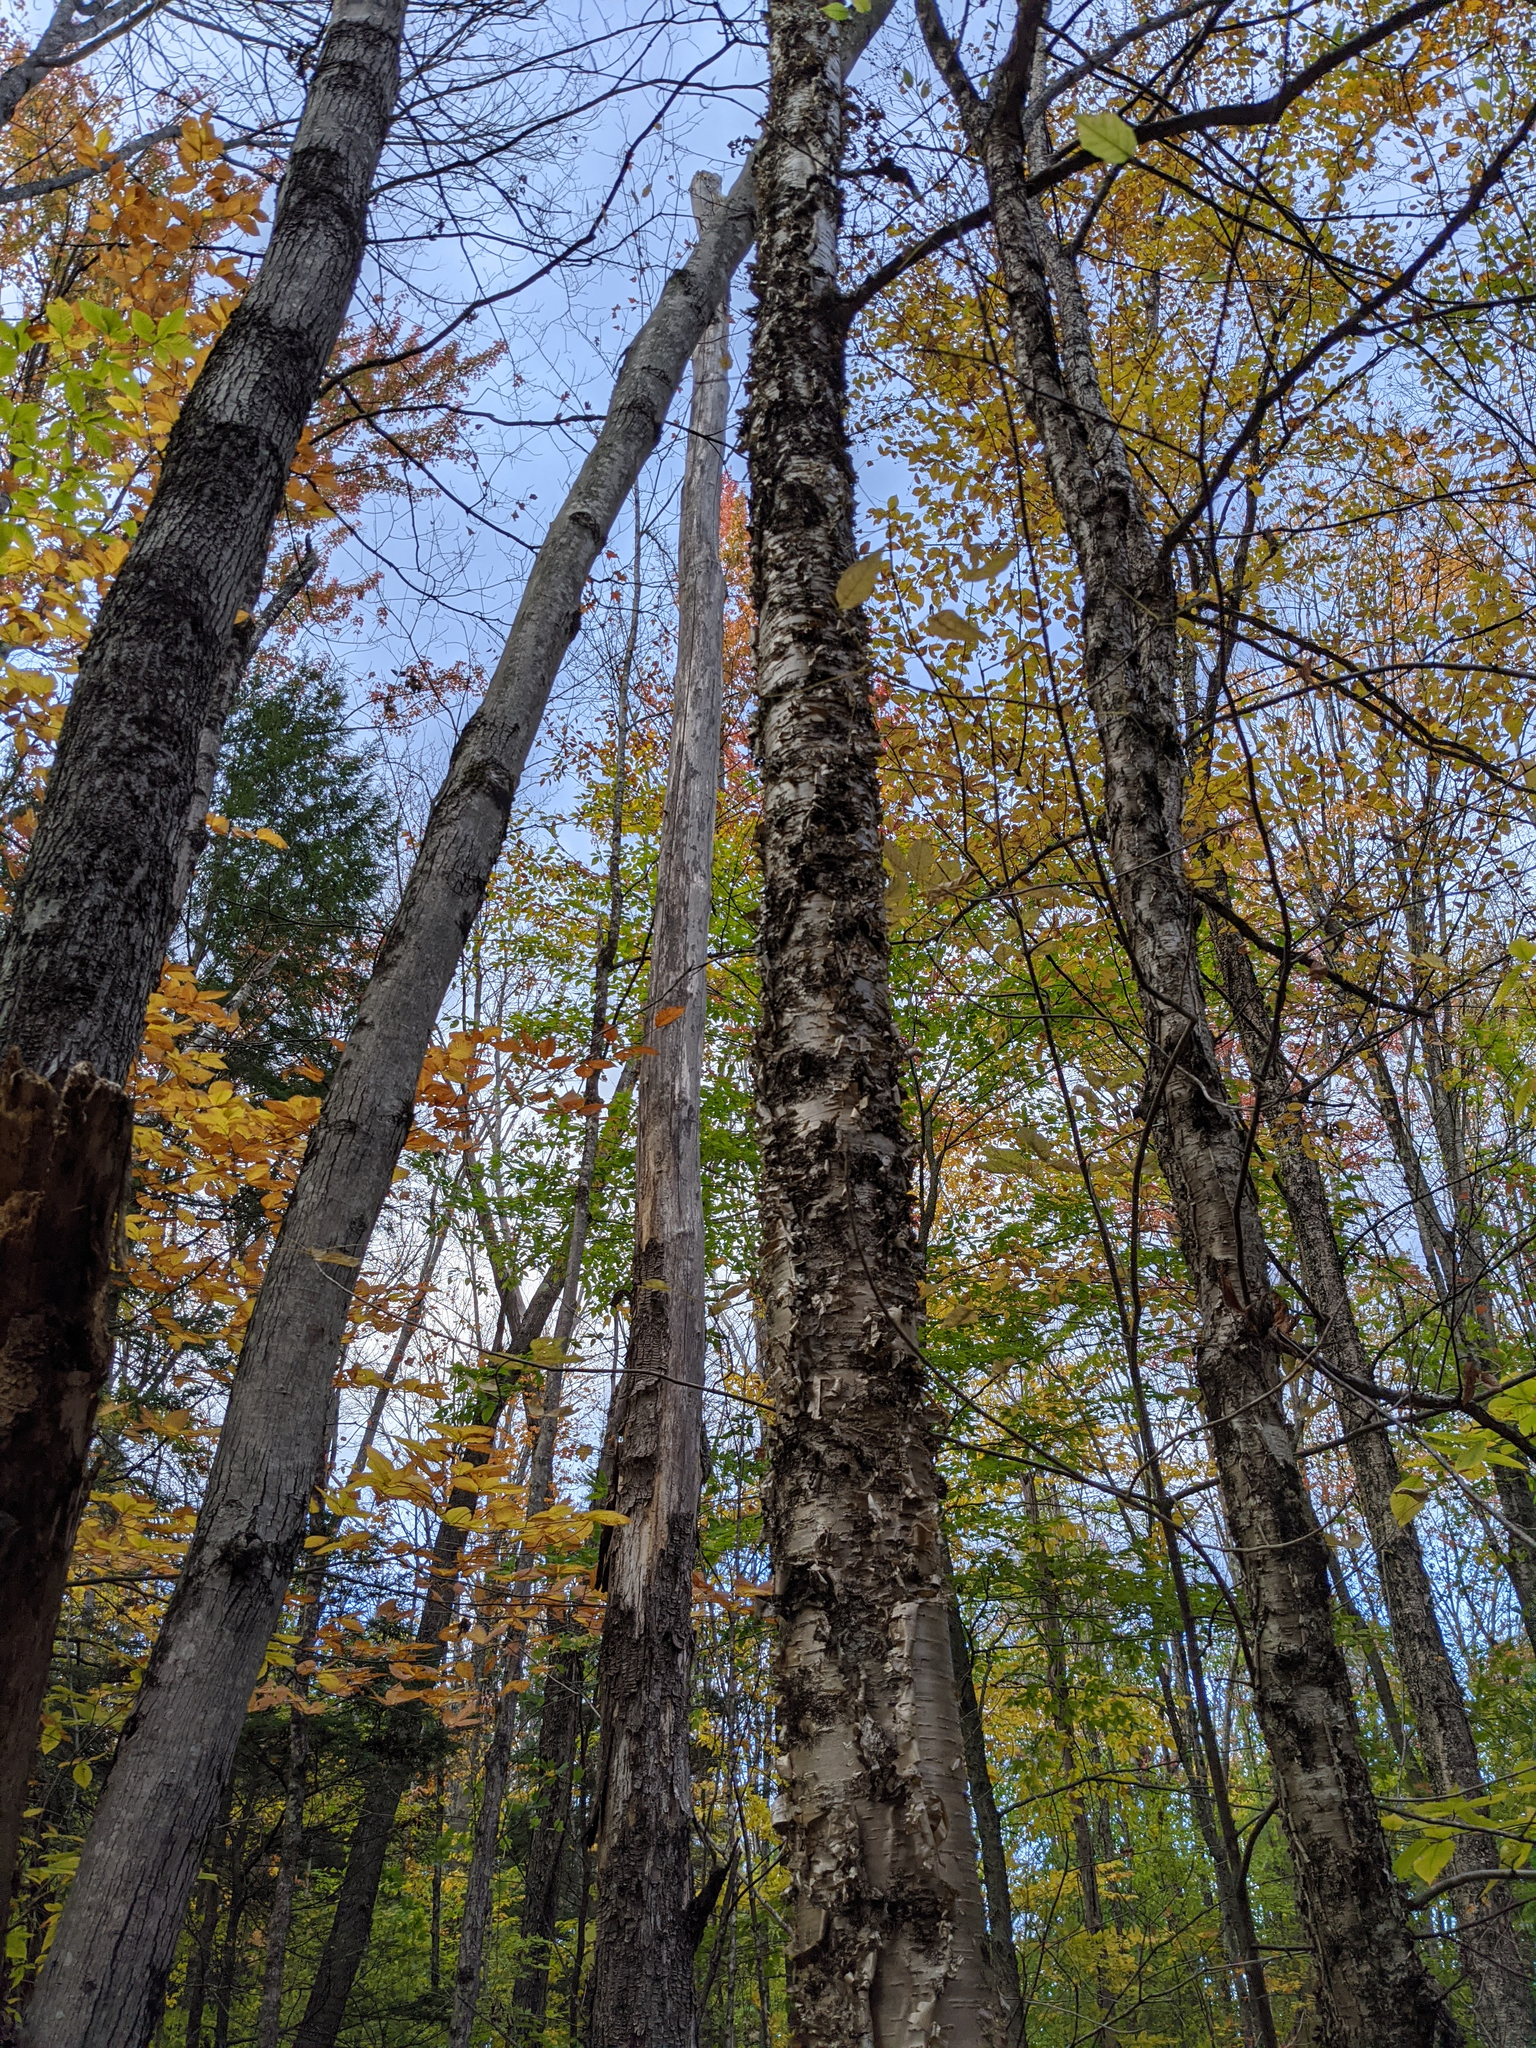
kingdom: Plantae
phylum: Tracheophyta
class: Magnoliopsida
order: Fagales
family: Betulaceae
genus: Betula
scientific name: Betula alleghaniensis
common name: Yellow birch
